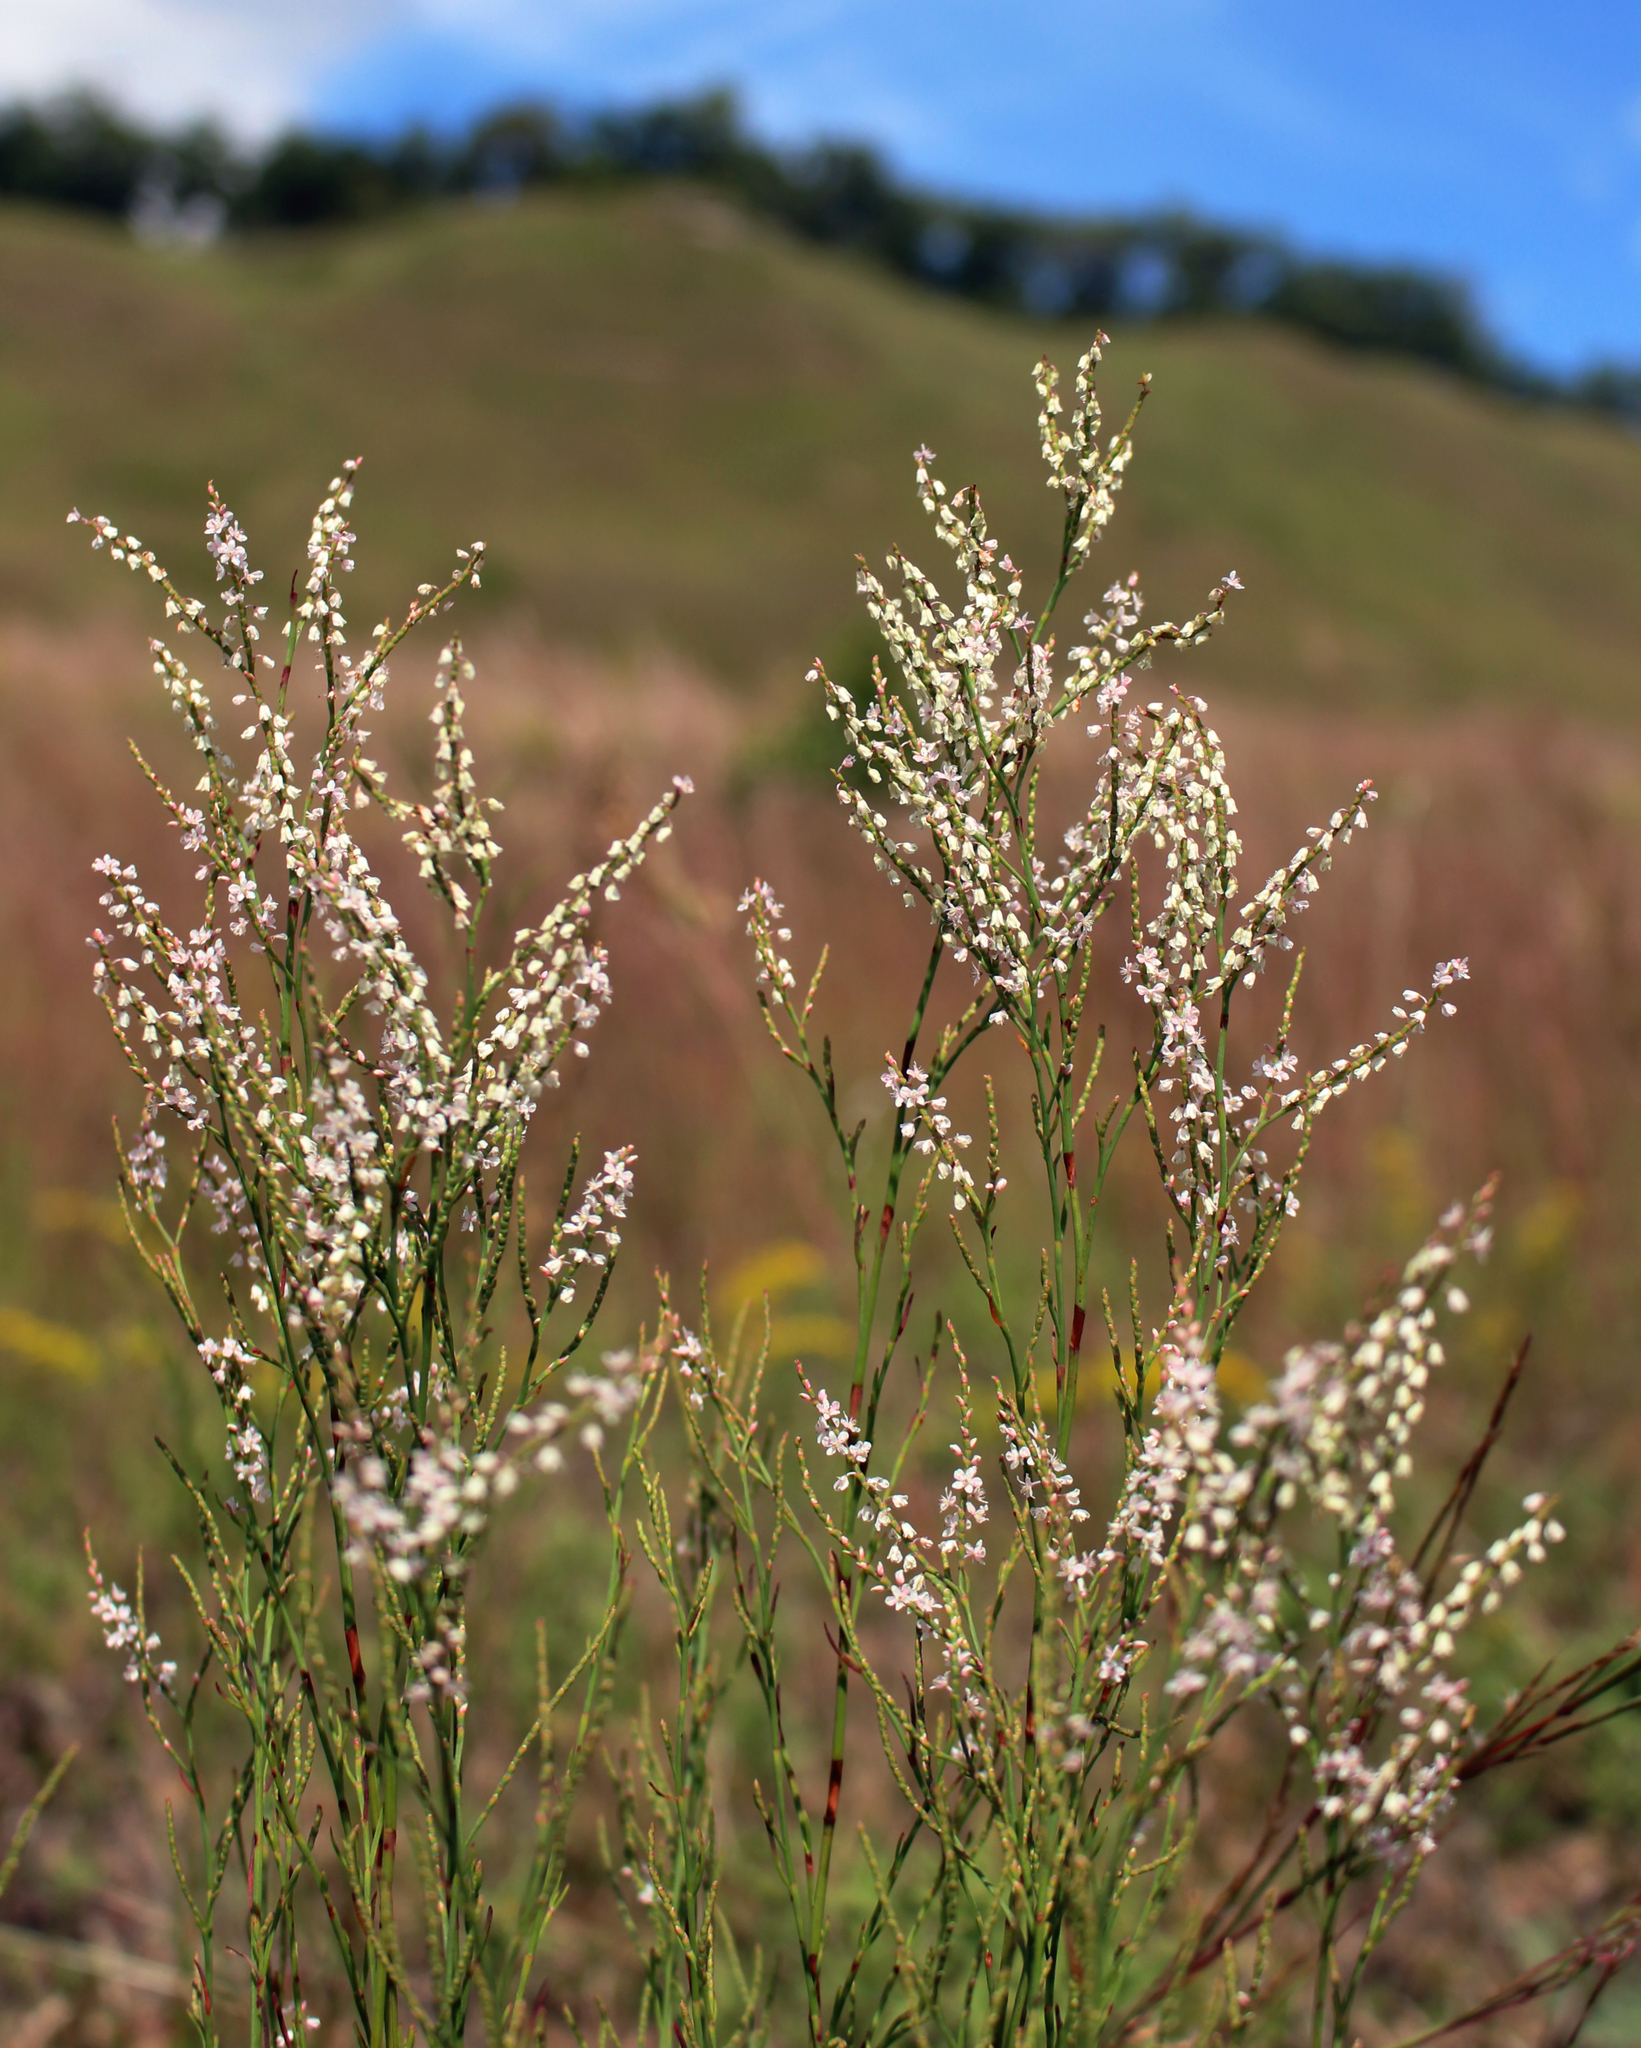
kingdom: Plantae
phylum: Tracheophyta
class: Magnoliopsida
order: Caryophyllales
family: Polygonaceae
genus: Polygonella
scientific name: Polygonella articulata
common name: Coastal jointweed
